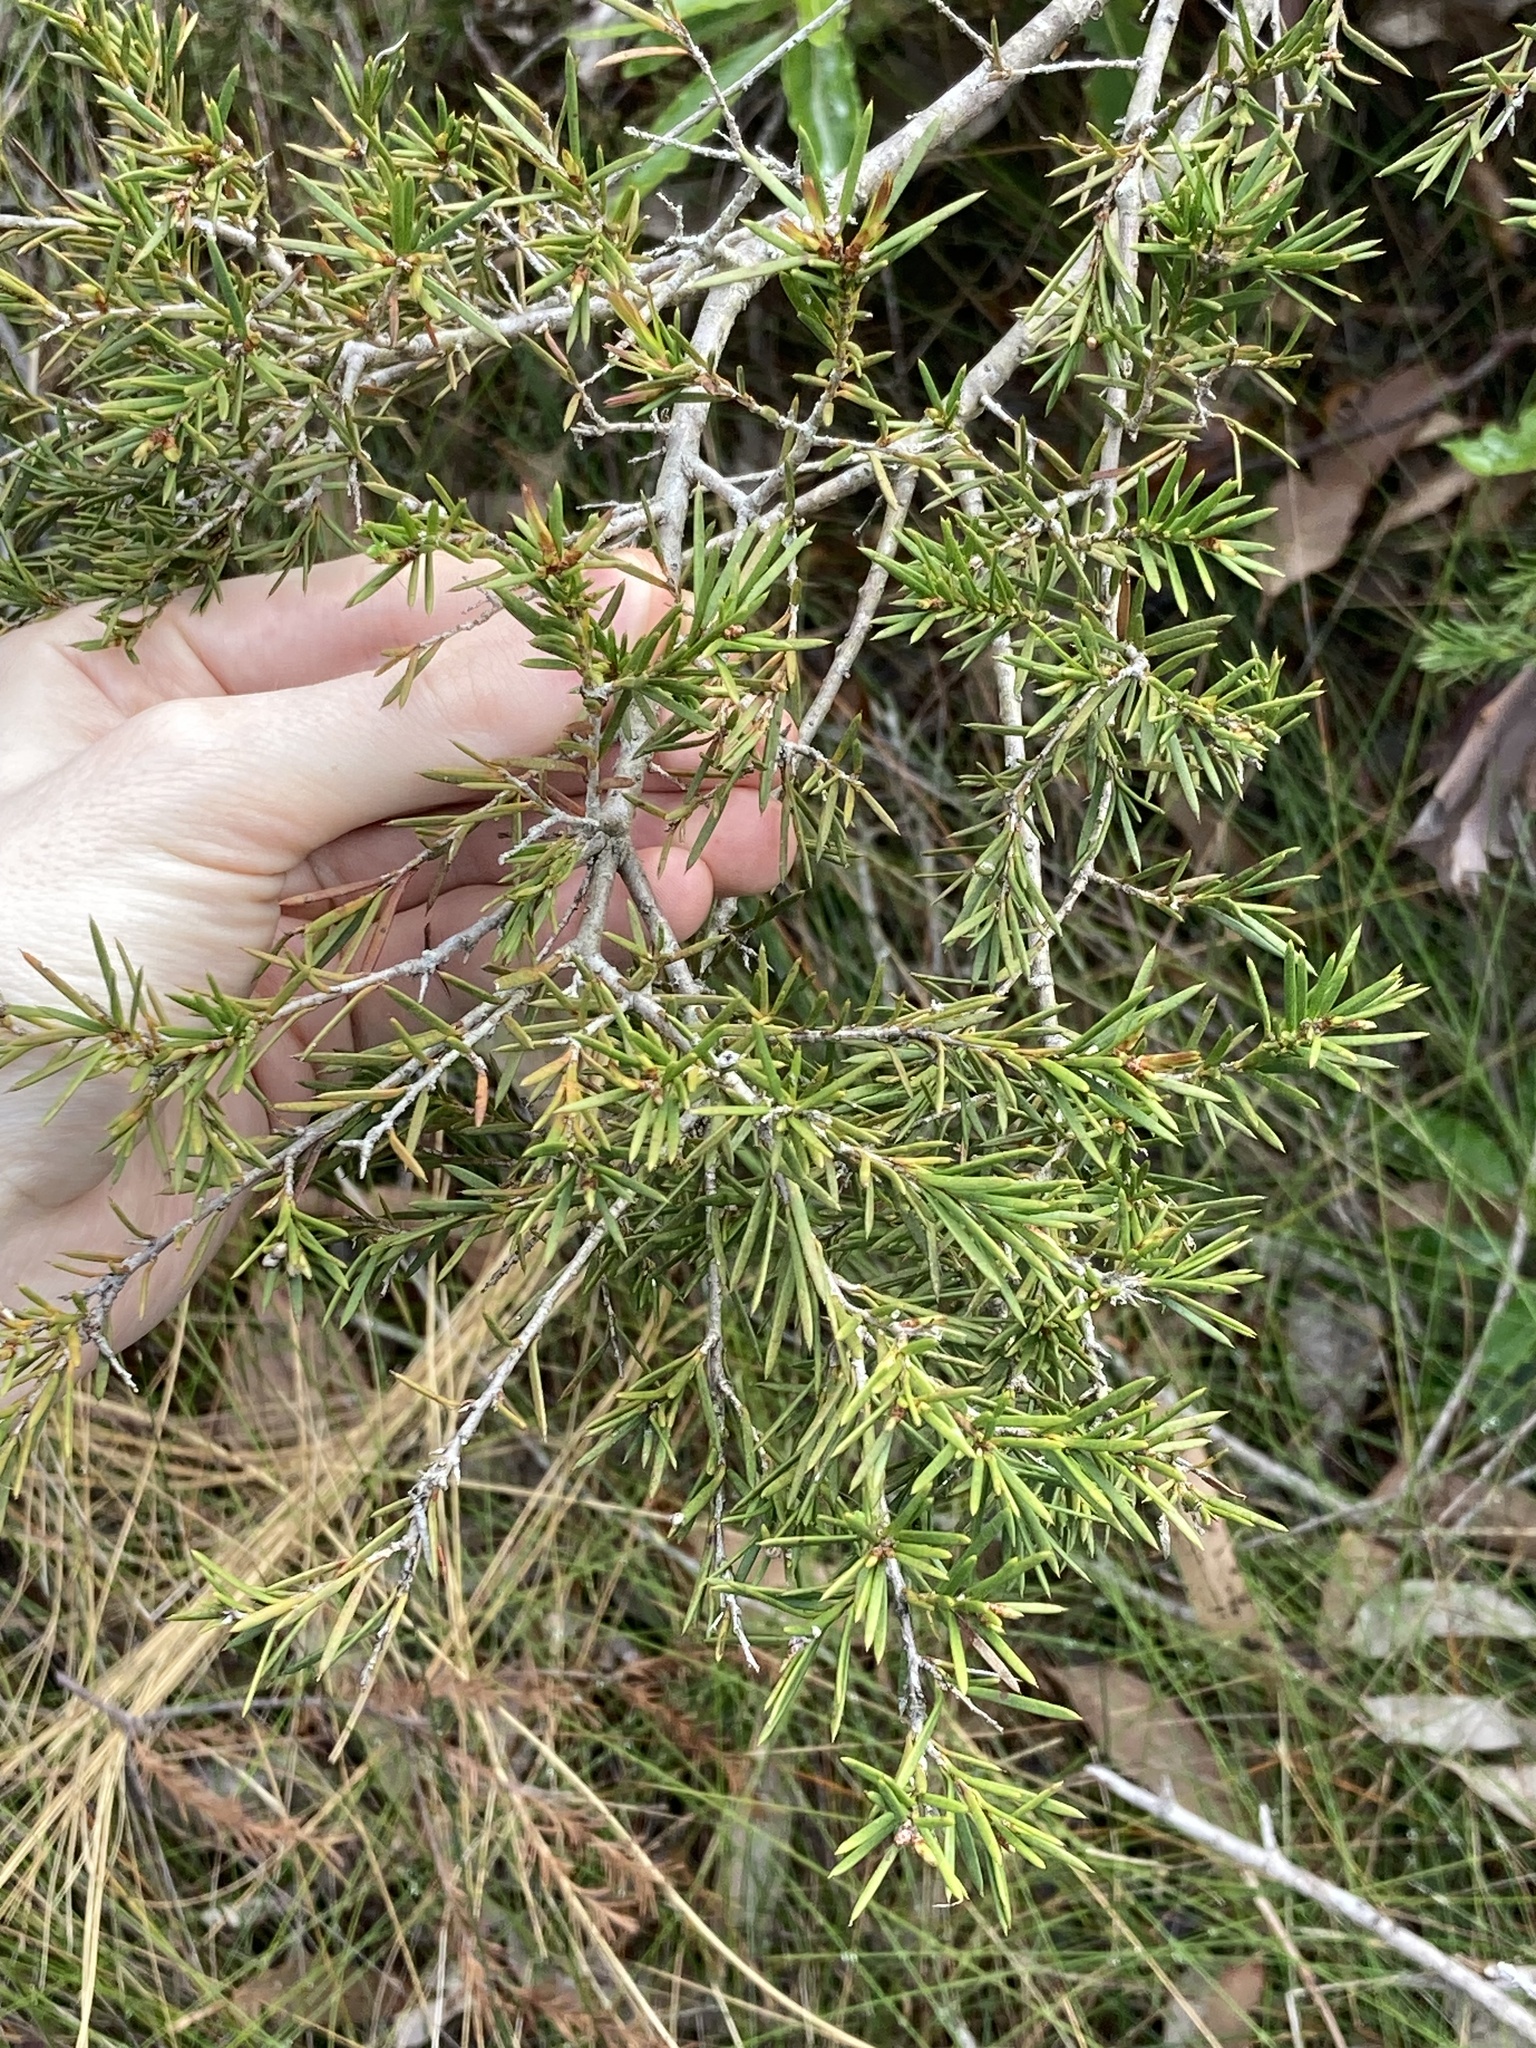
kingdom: Plantae
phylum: Tracheophyta
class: Magnoliopsida
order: Myrtales
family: Myrtaceae
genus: Melaleuca
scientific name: Melaleuca nodosa
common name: Prickly-leaf paperbark
